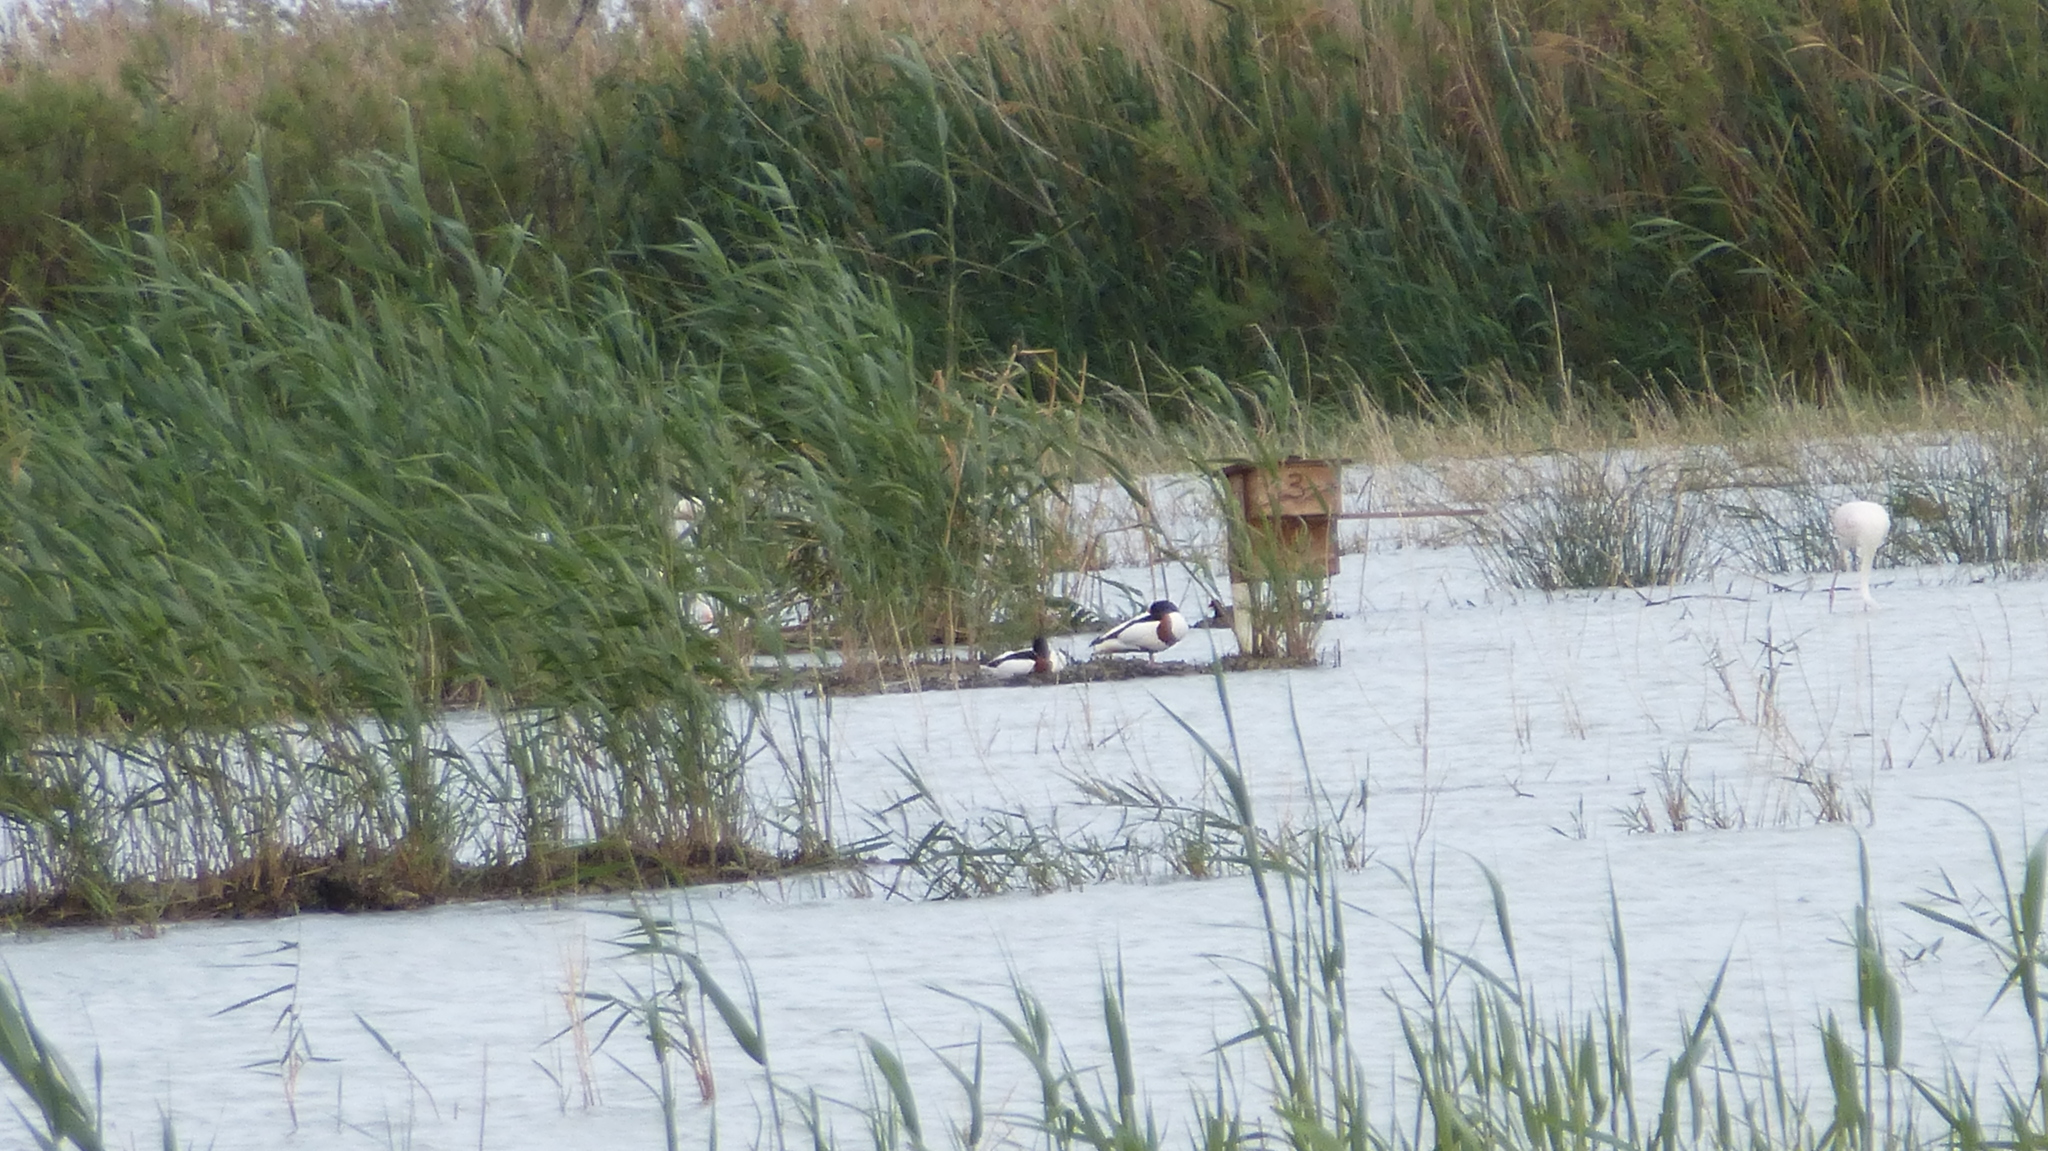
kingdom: Animalia
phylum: Chordata
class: Aves
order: Anseriformes
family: Anatidae
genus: Tadorna
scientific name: Tadorna tadorna
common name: Common shelduck
